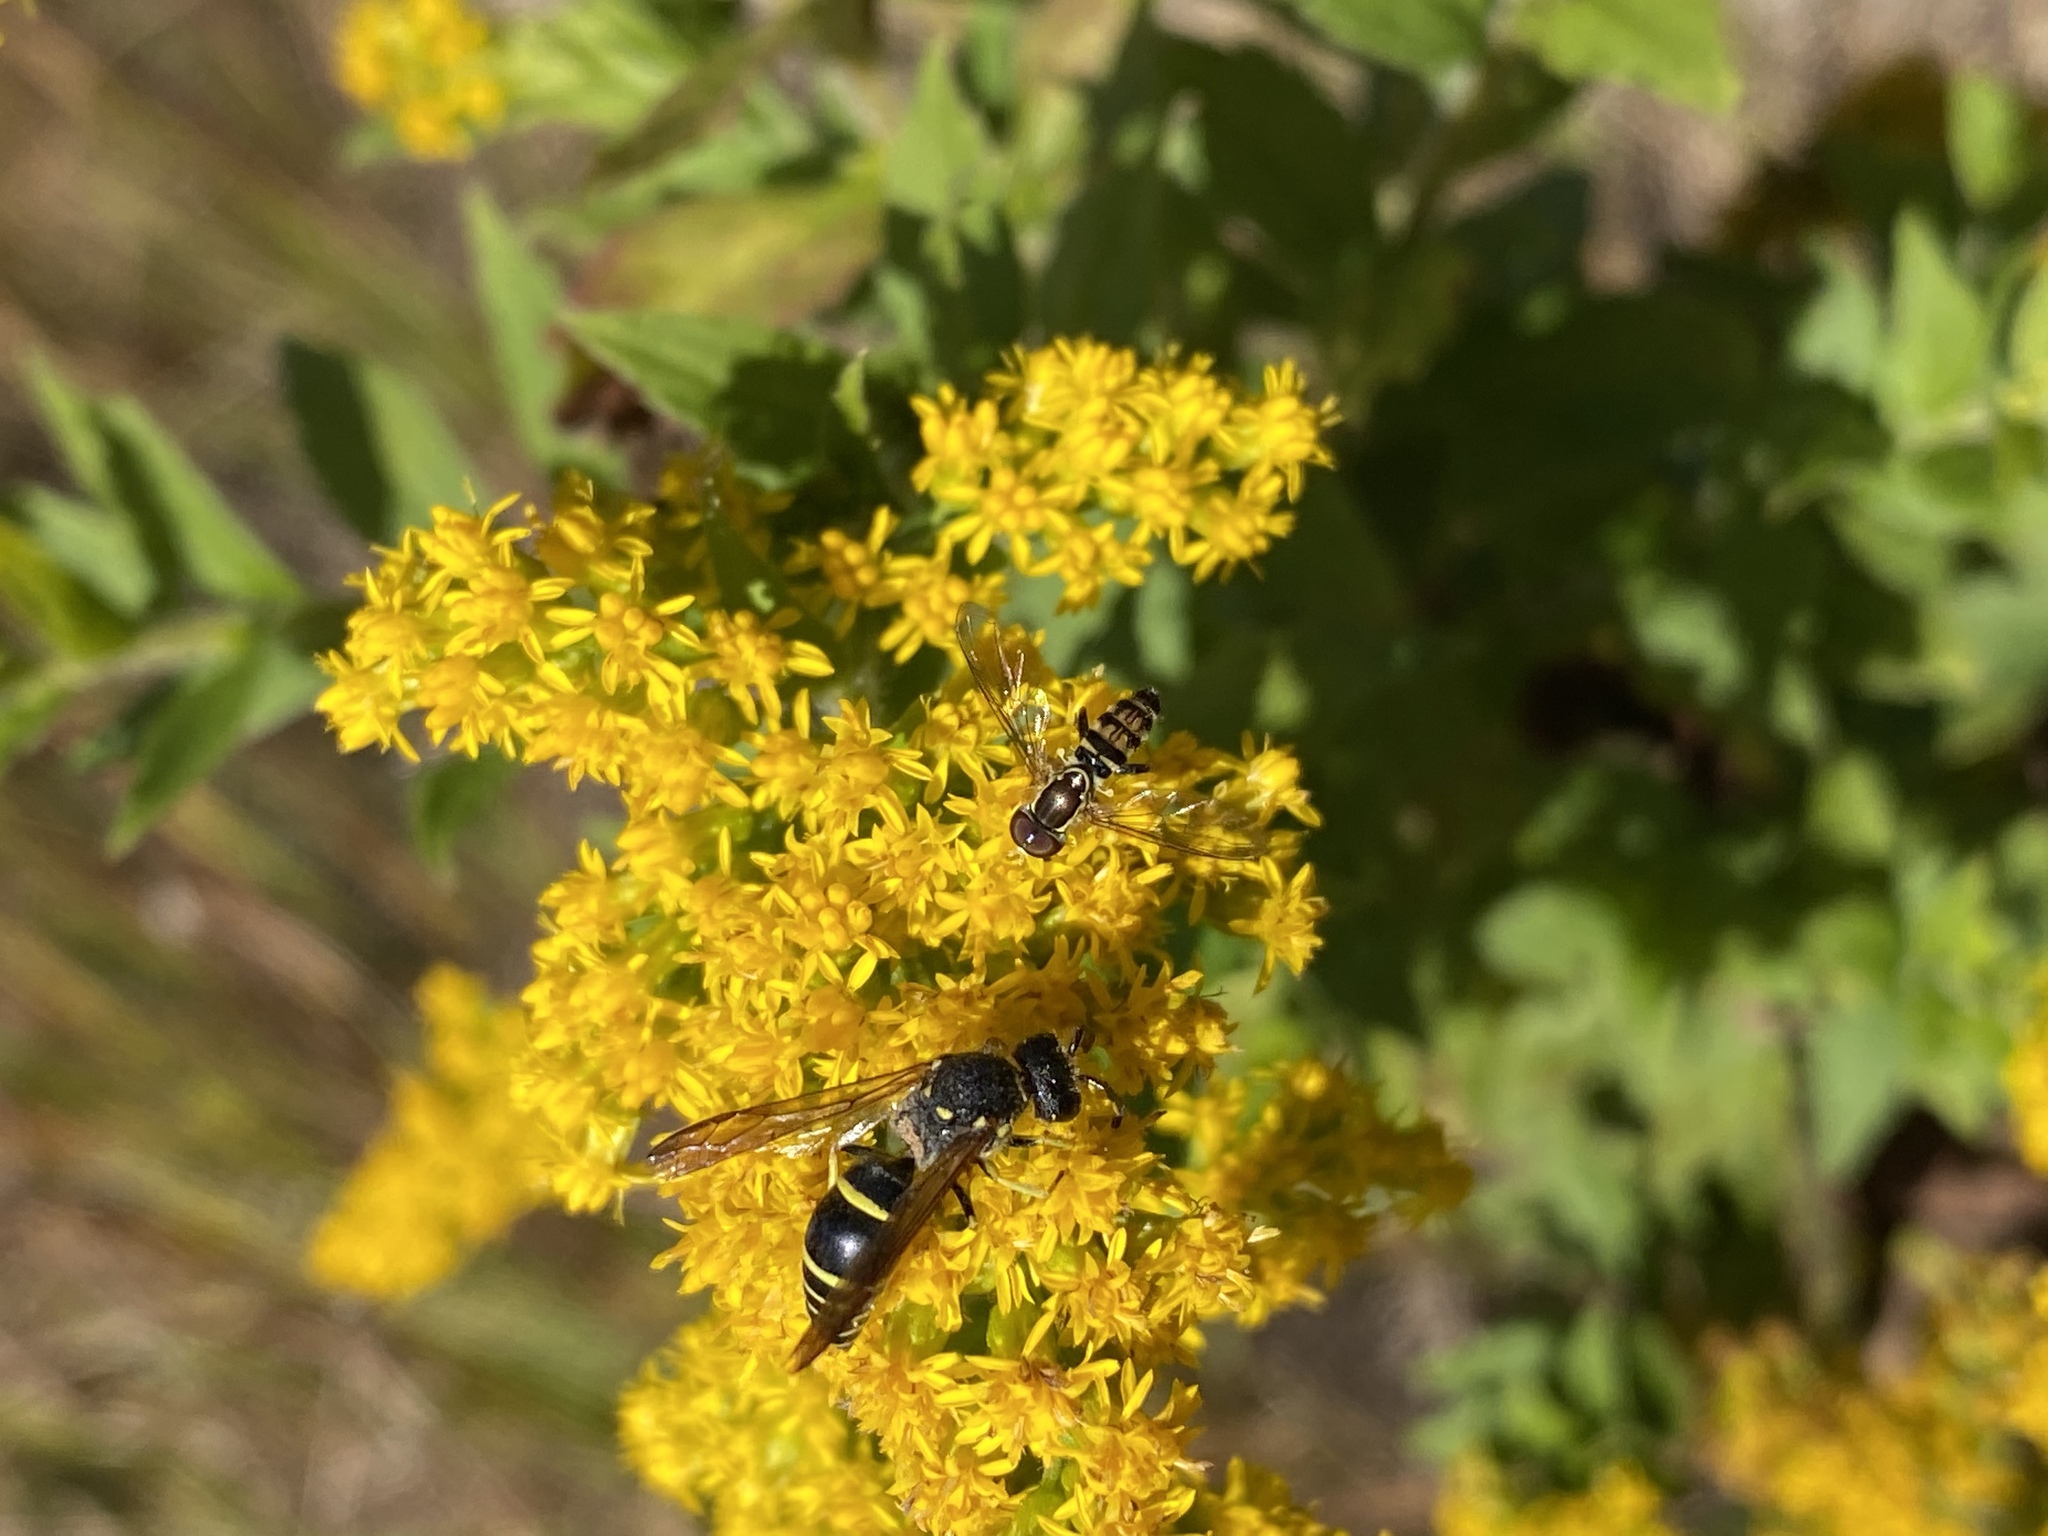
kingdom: Animalia
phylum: Arthropoda
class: Insecta
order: Diptera
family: Syrphidae
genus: Toxomerus
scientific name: Toxomerus geminatus
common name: Eastern calligrapher
